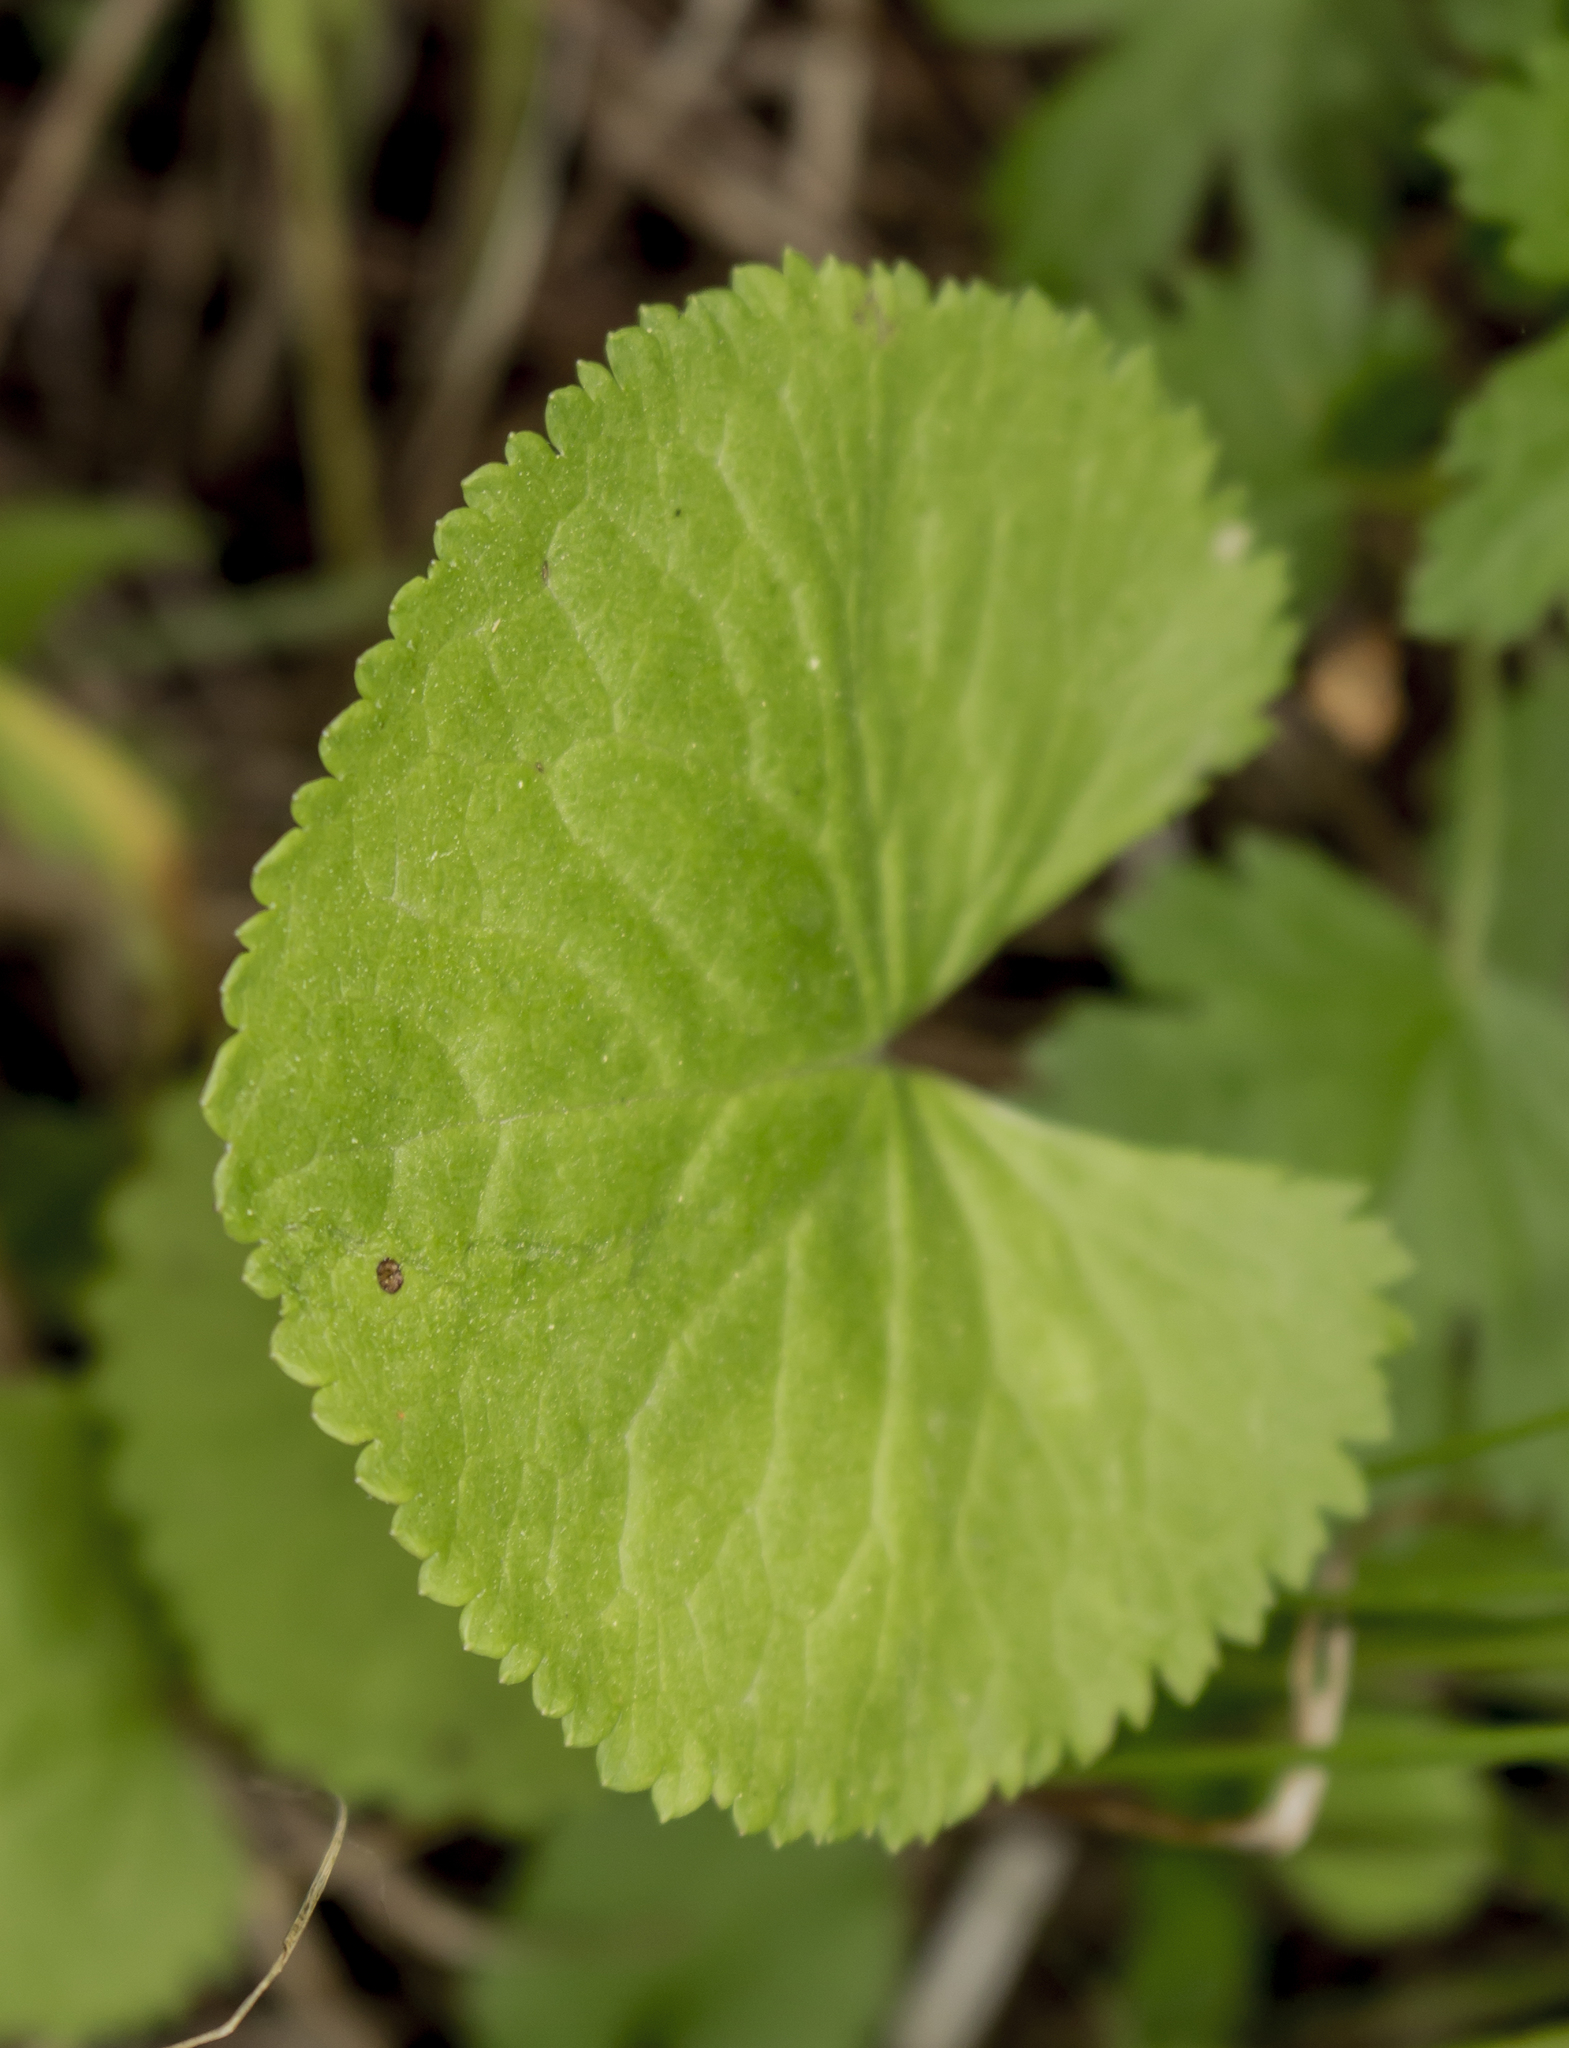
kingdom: Plantae
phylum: Tracheophyta
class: Magnoliopsida
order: Asterales
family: Asteraceae
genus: Packera
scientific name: Packera aurea
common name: Golden groundsel
